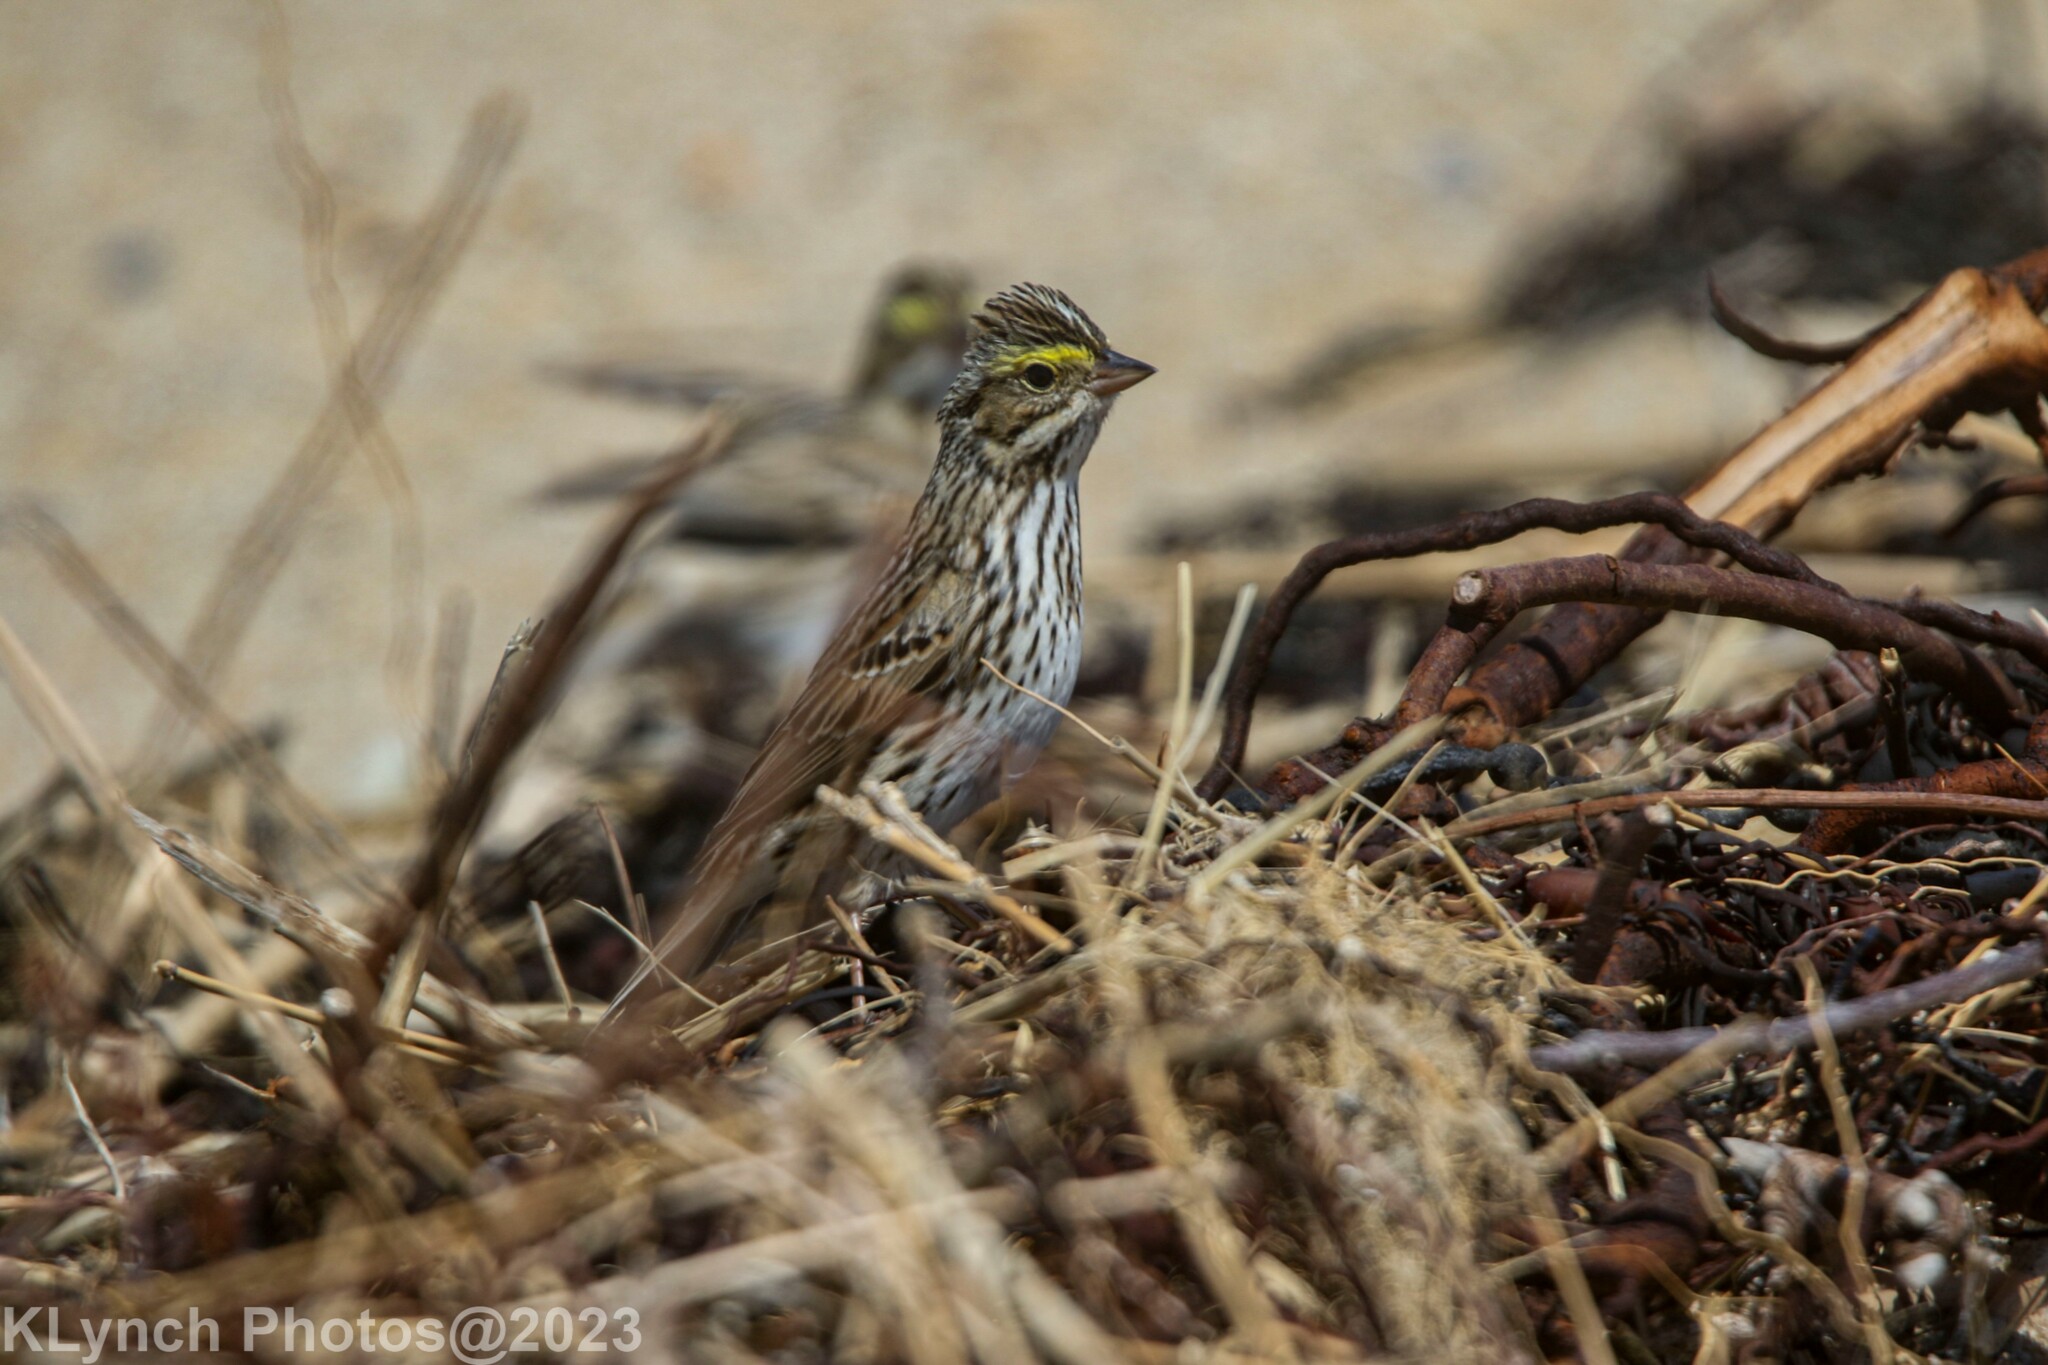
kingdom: Animalia
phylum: Chordata
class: Aves
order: Passeriformes
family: Passerellidae
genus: Passerculus
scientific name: Passerculus sandwichensis
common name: Savannah sparrow
